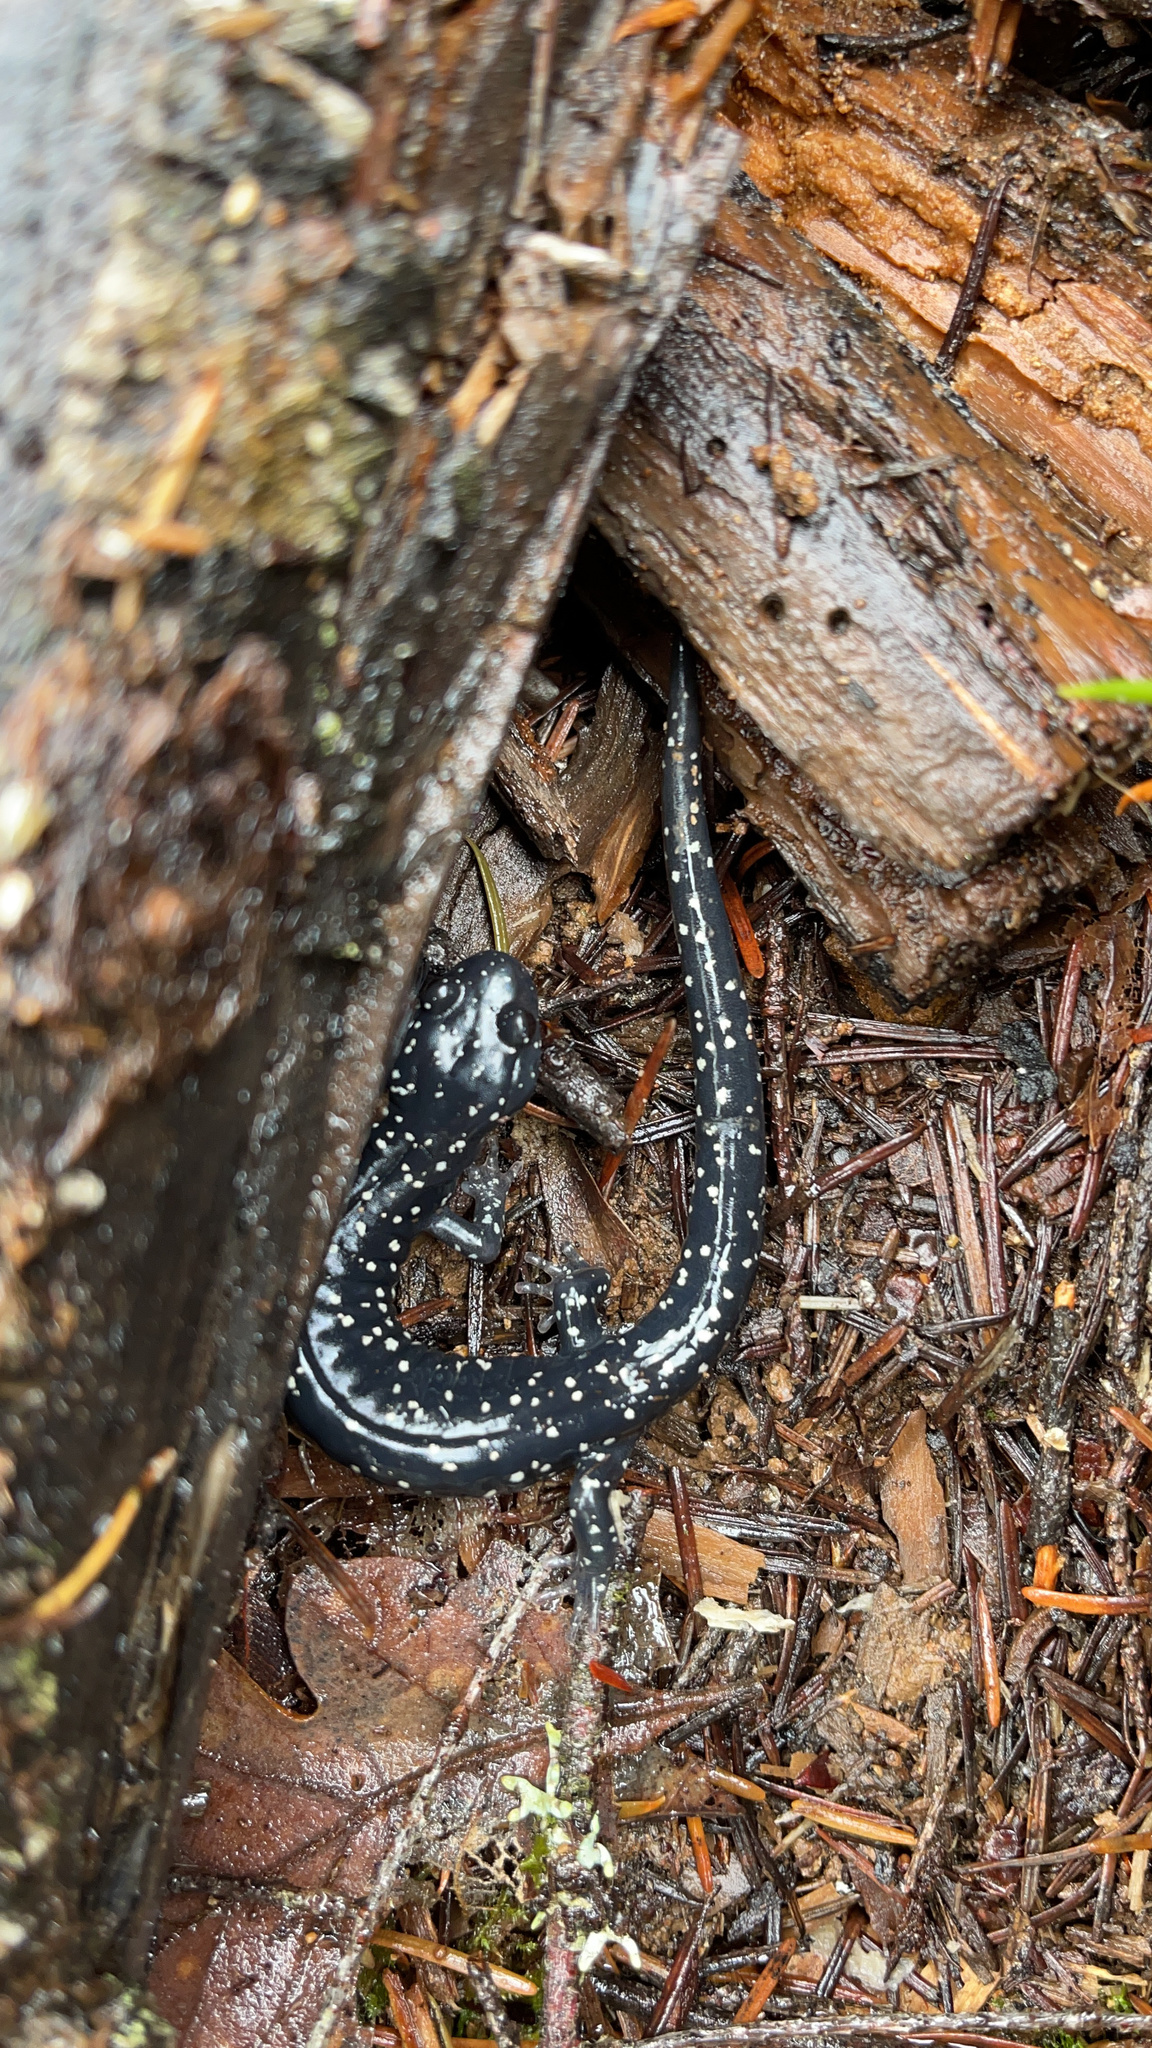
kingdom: Animalia
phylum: Chordata
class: Amphibia
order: Caudata
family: Plethodontidae
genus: Aneides
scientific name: Aneides flavipunctatus
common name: Black salamander
